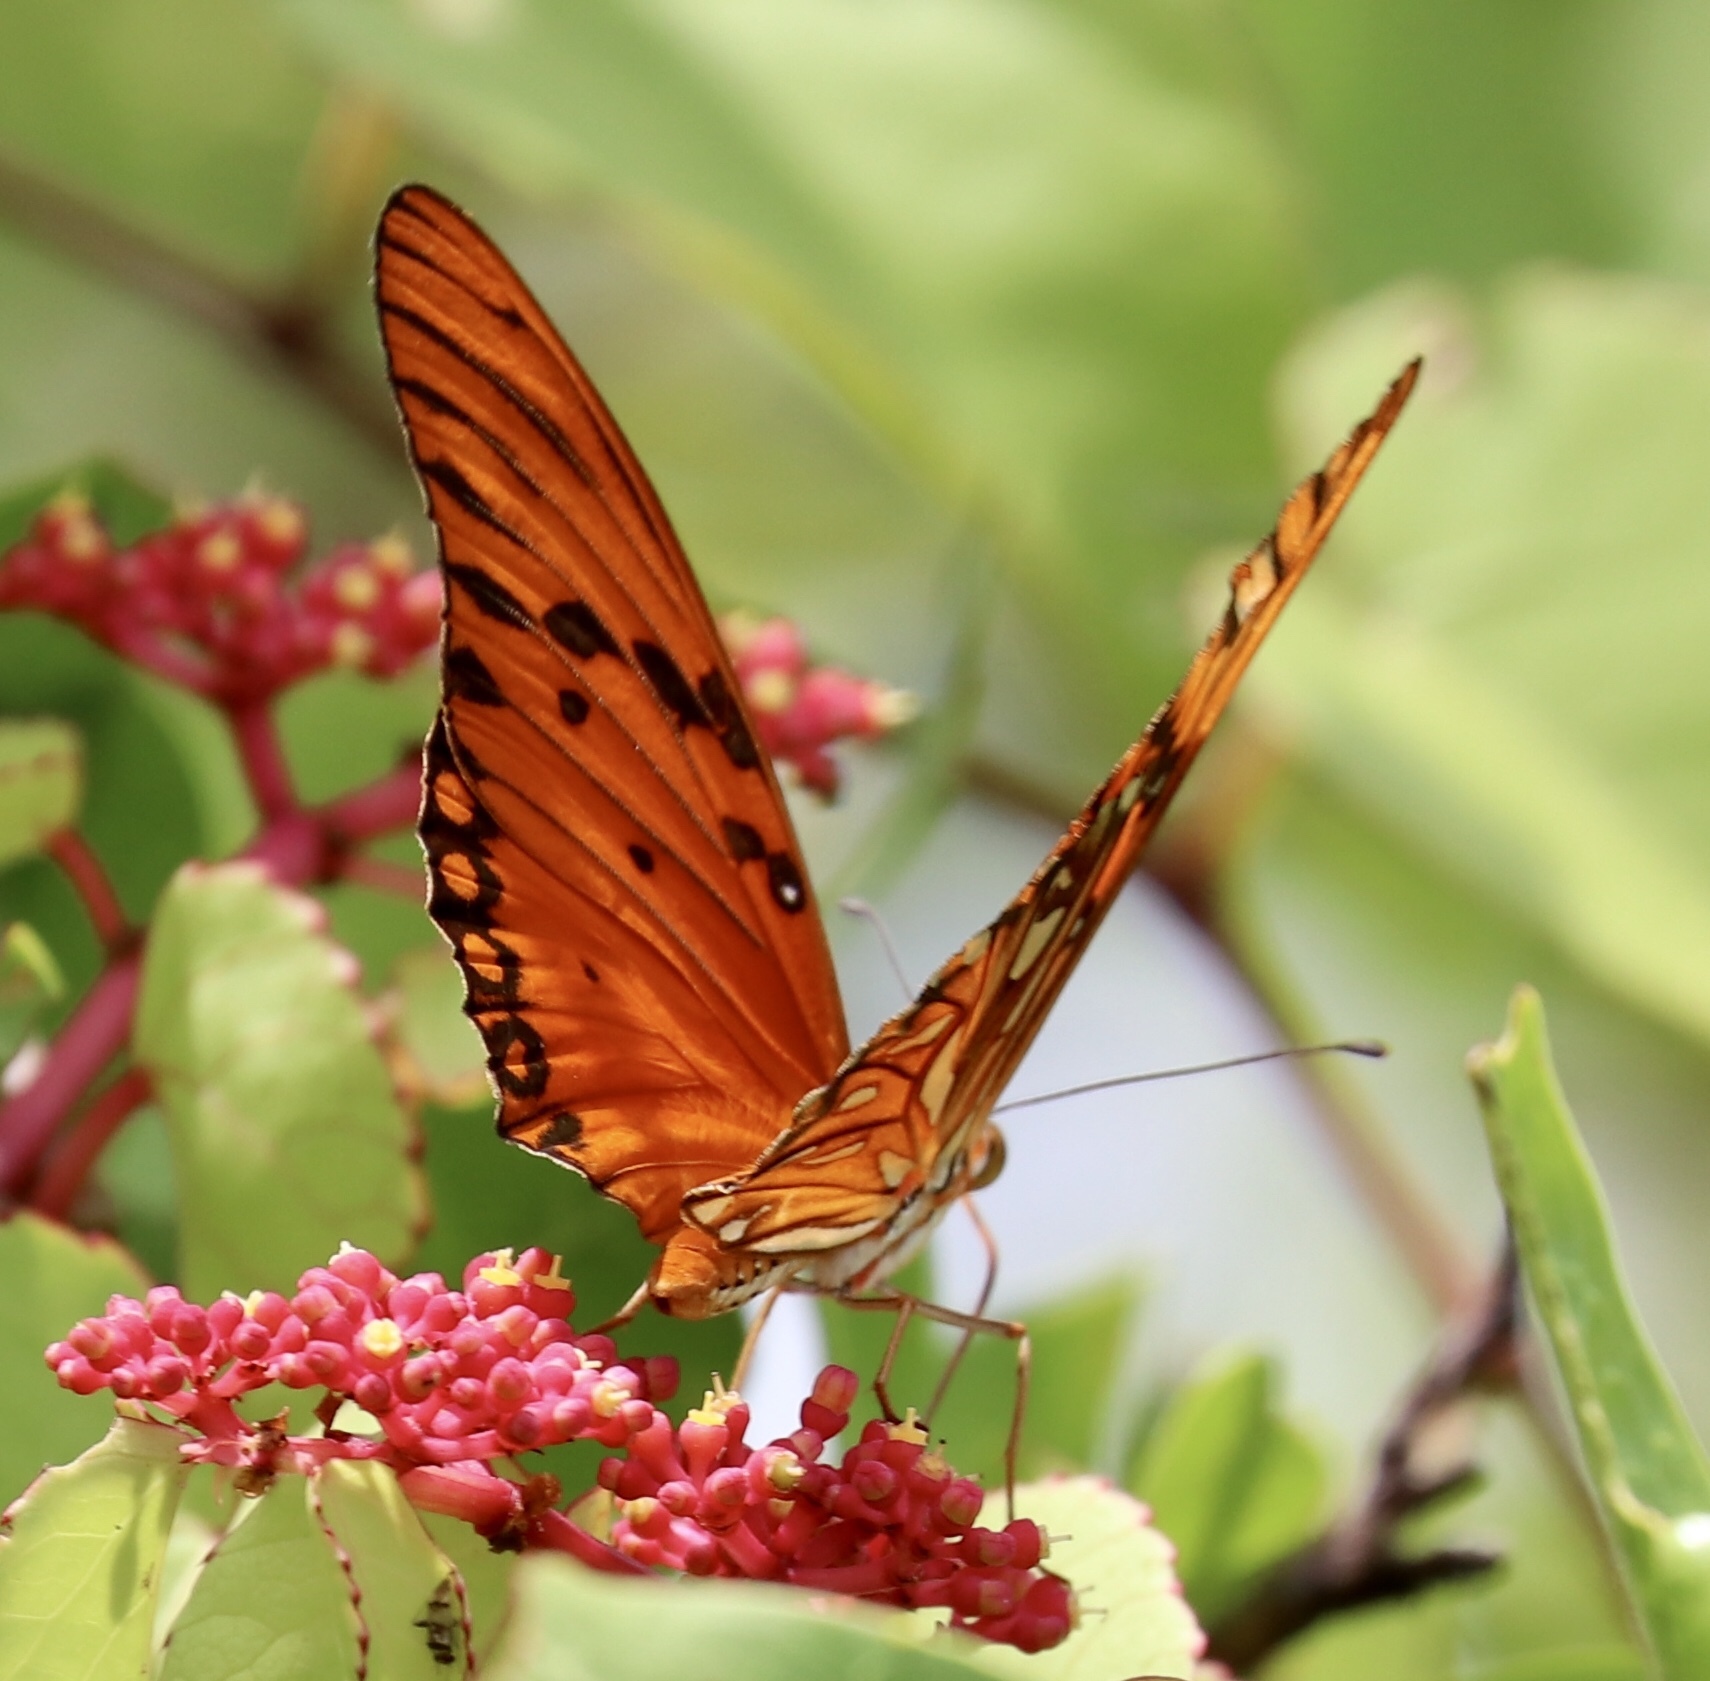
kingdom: Animalia
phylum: Arthropoda
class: Insecta
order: Lepidoptera
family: Nymphalidae
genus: Dione
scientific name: Dione vanillae
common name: Gulf fritillary
